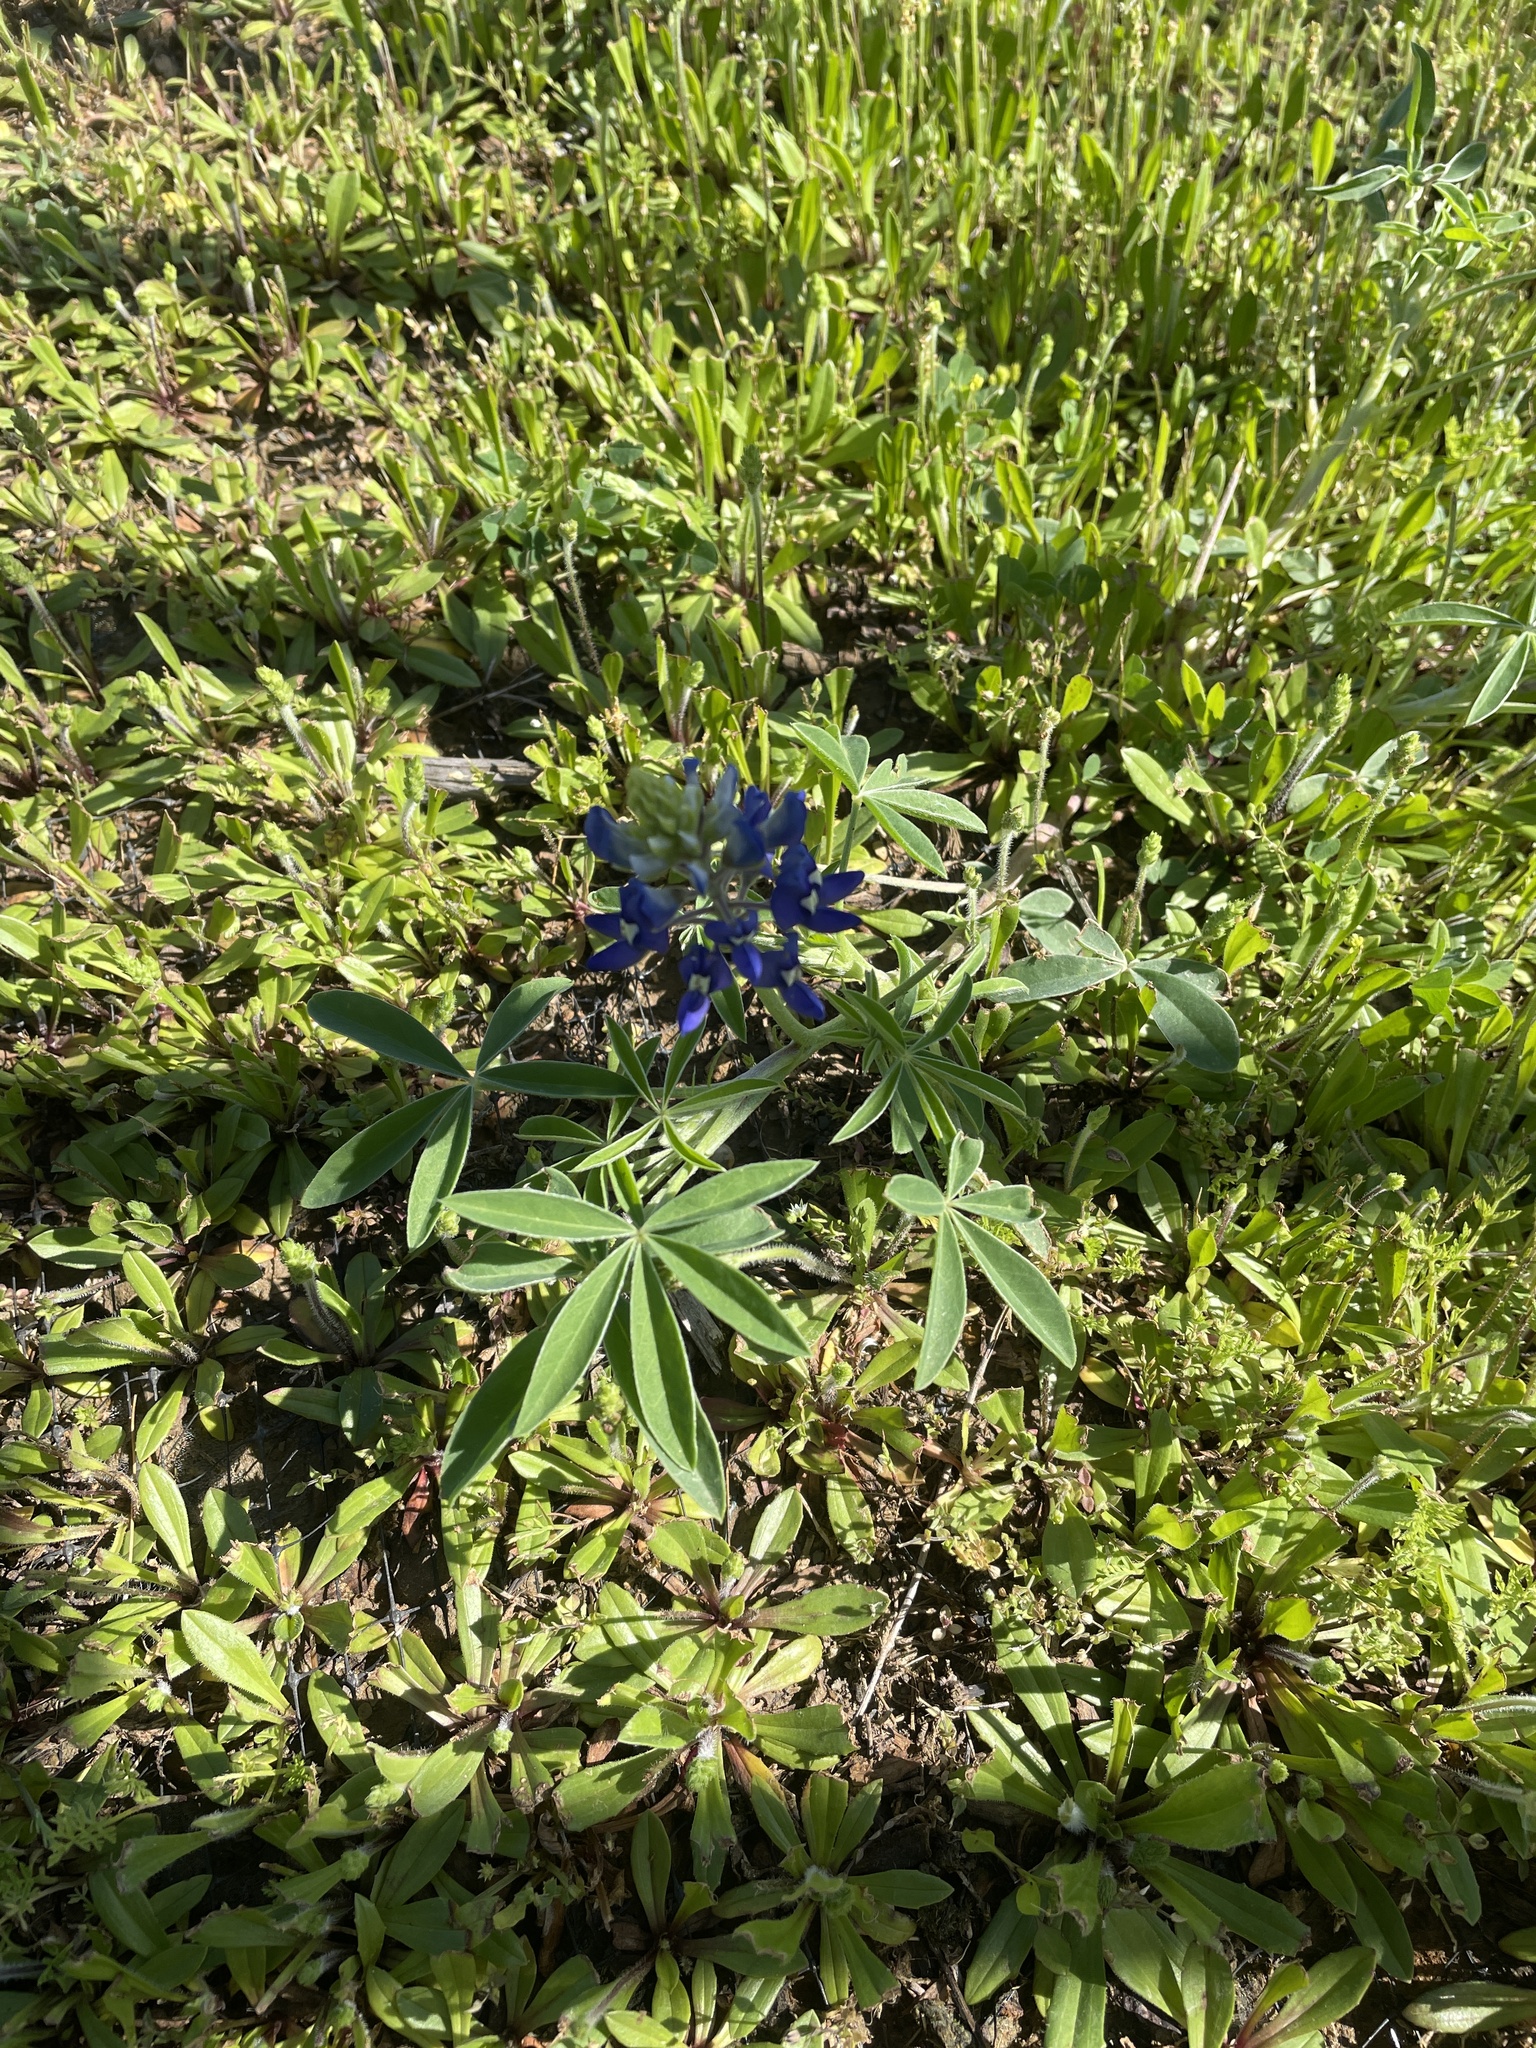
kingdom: Plantae
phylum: Tracheophyta
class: Magnoliopsida
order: Fabales
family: Fabaceae
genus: Lupinus
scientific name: Lupinus texensis
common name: Texas bluebonnet
